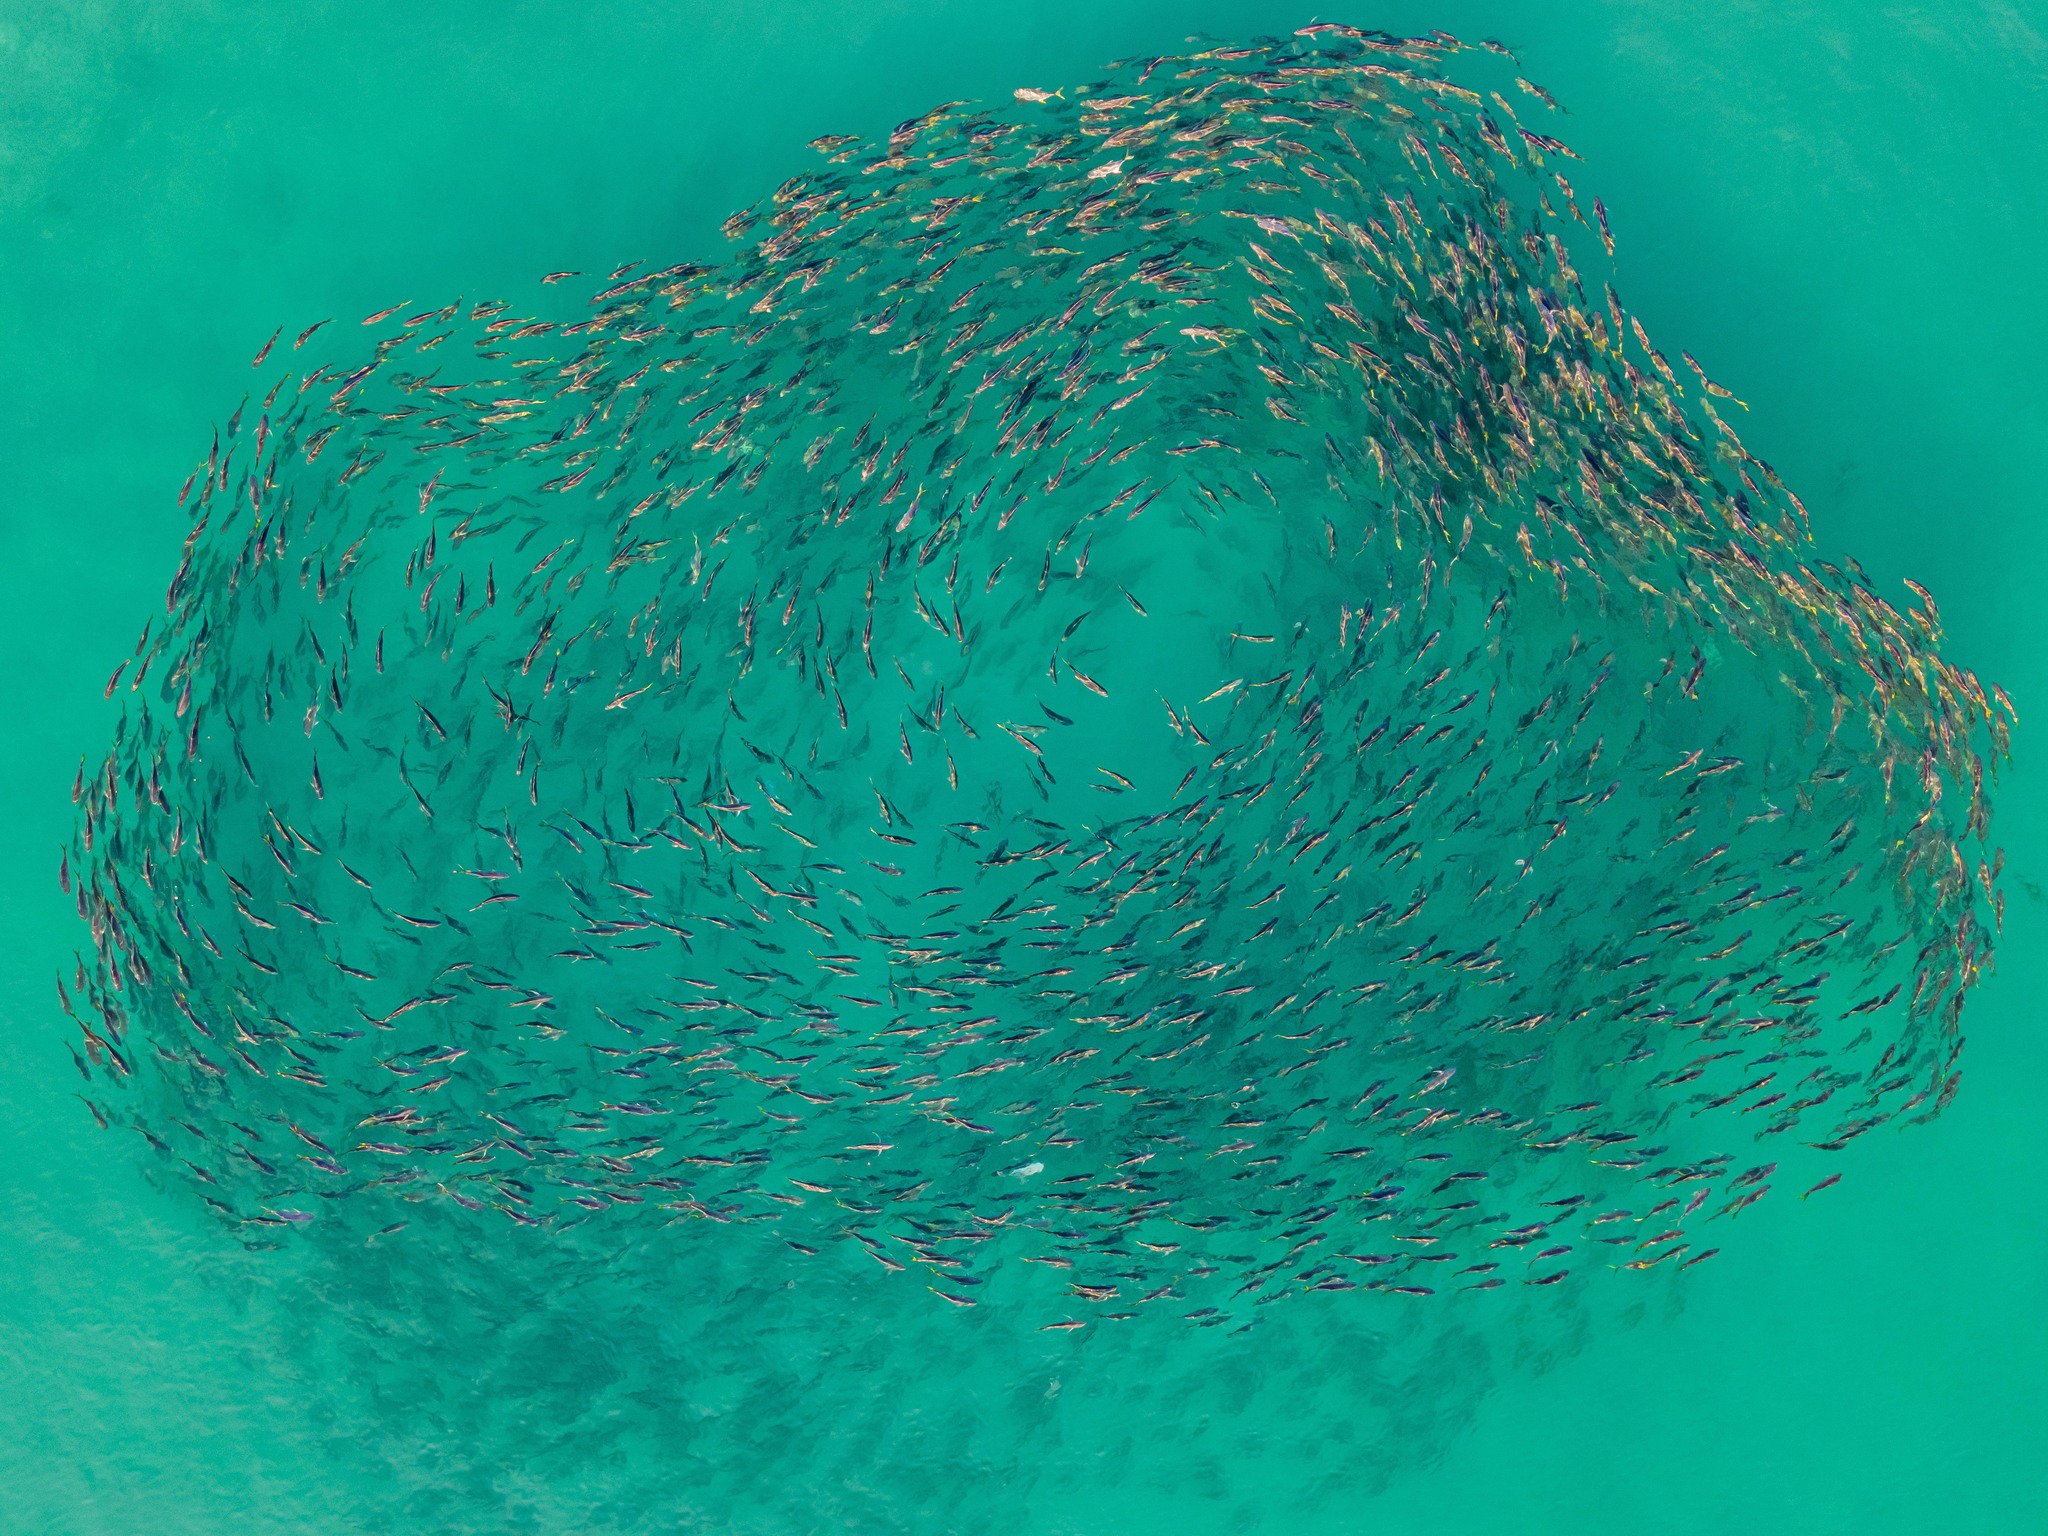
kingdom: Animalia
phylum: Chordata
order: Perciformes
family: Carangidae
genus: Caranx
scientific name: Caranx
